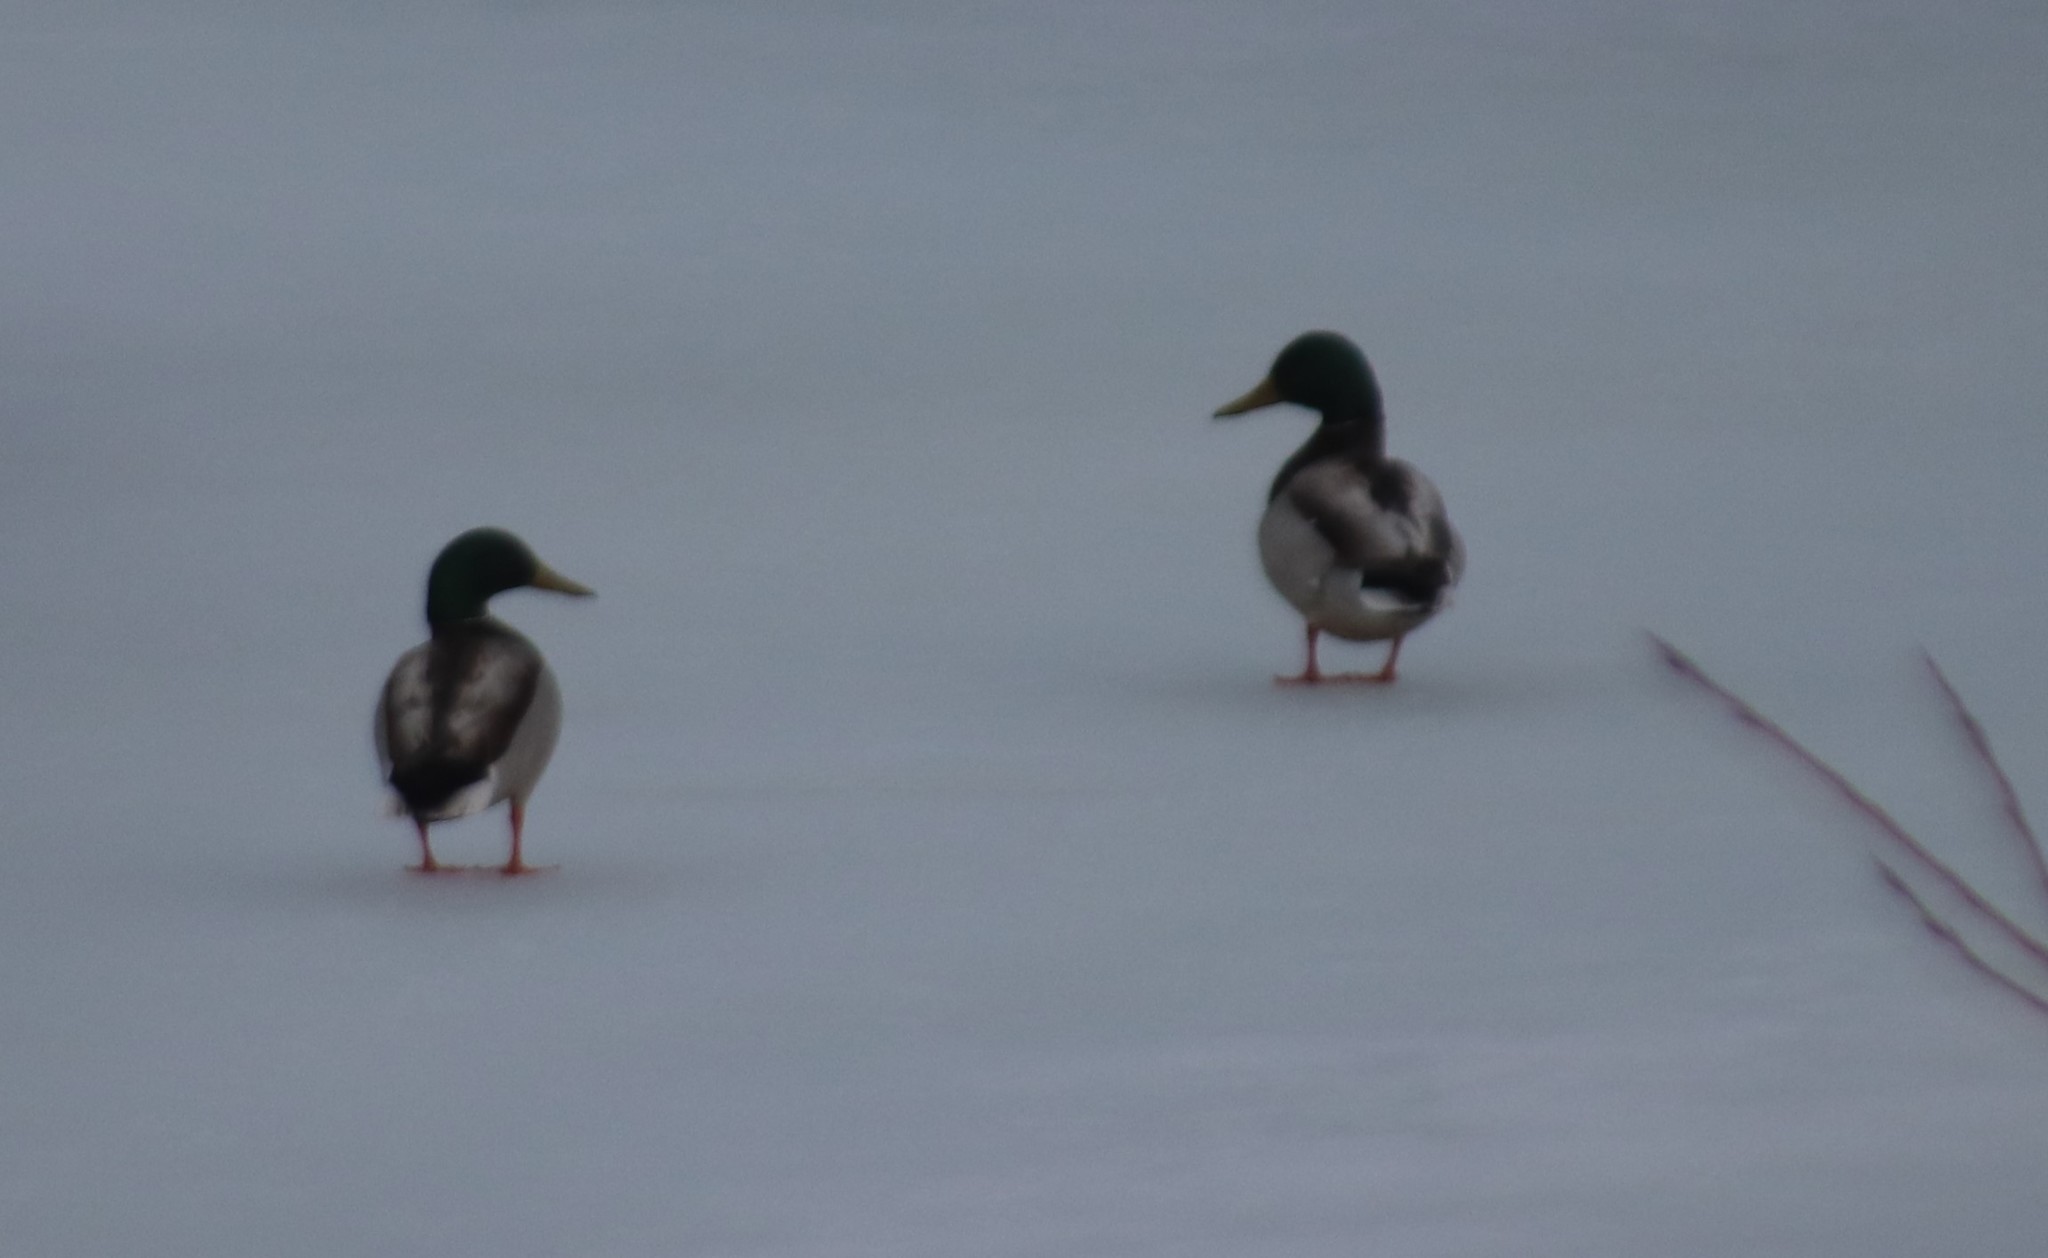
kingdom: Animalia
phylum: Chordata
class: Aves
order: Anseriformes
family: Anatidae
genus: Anas
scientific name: Anas platyrhynchos
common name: Mallard
